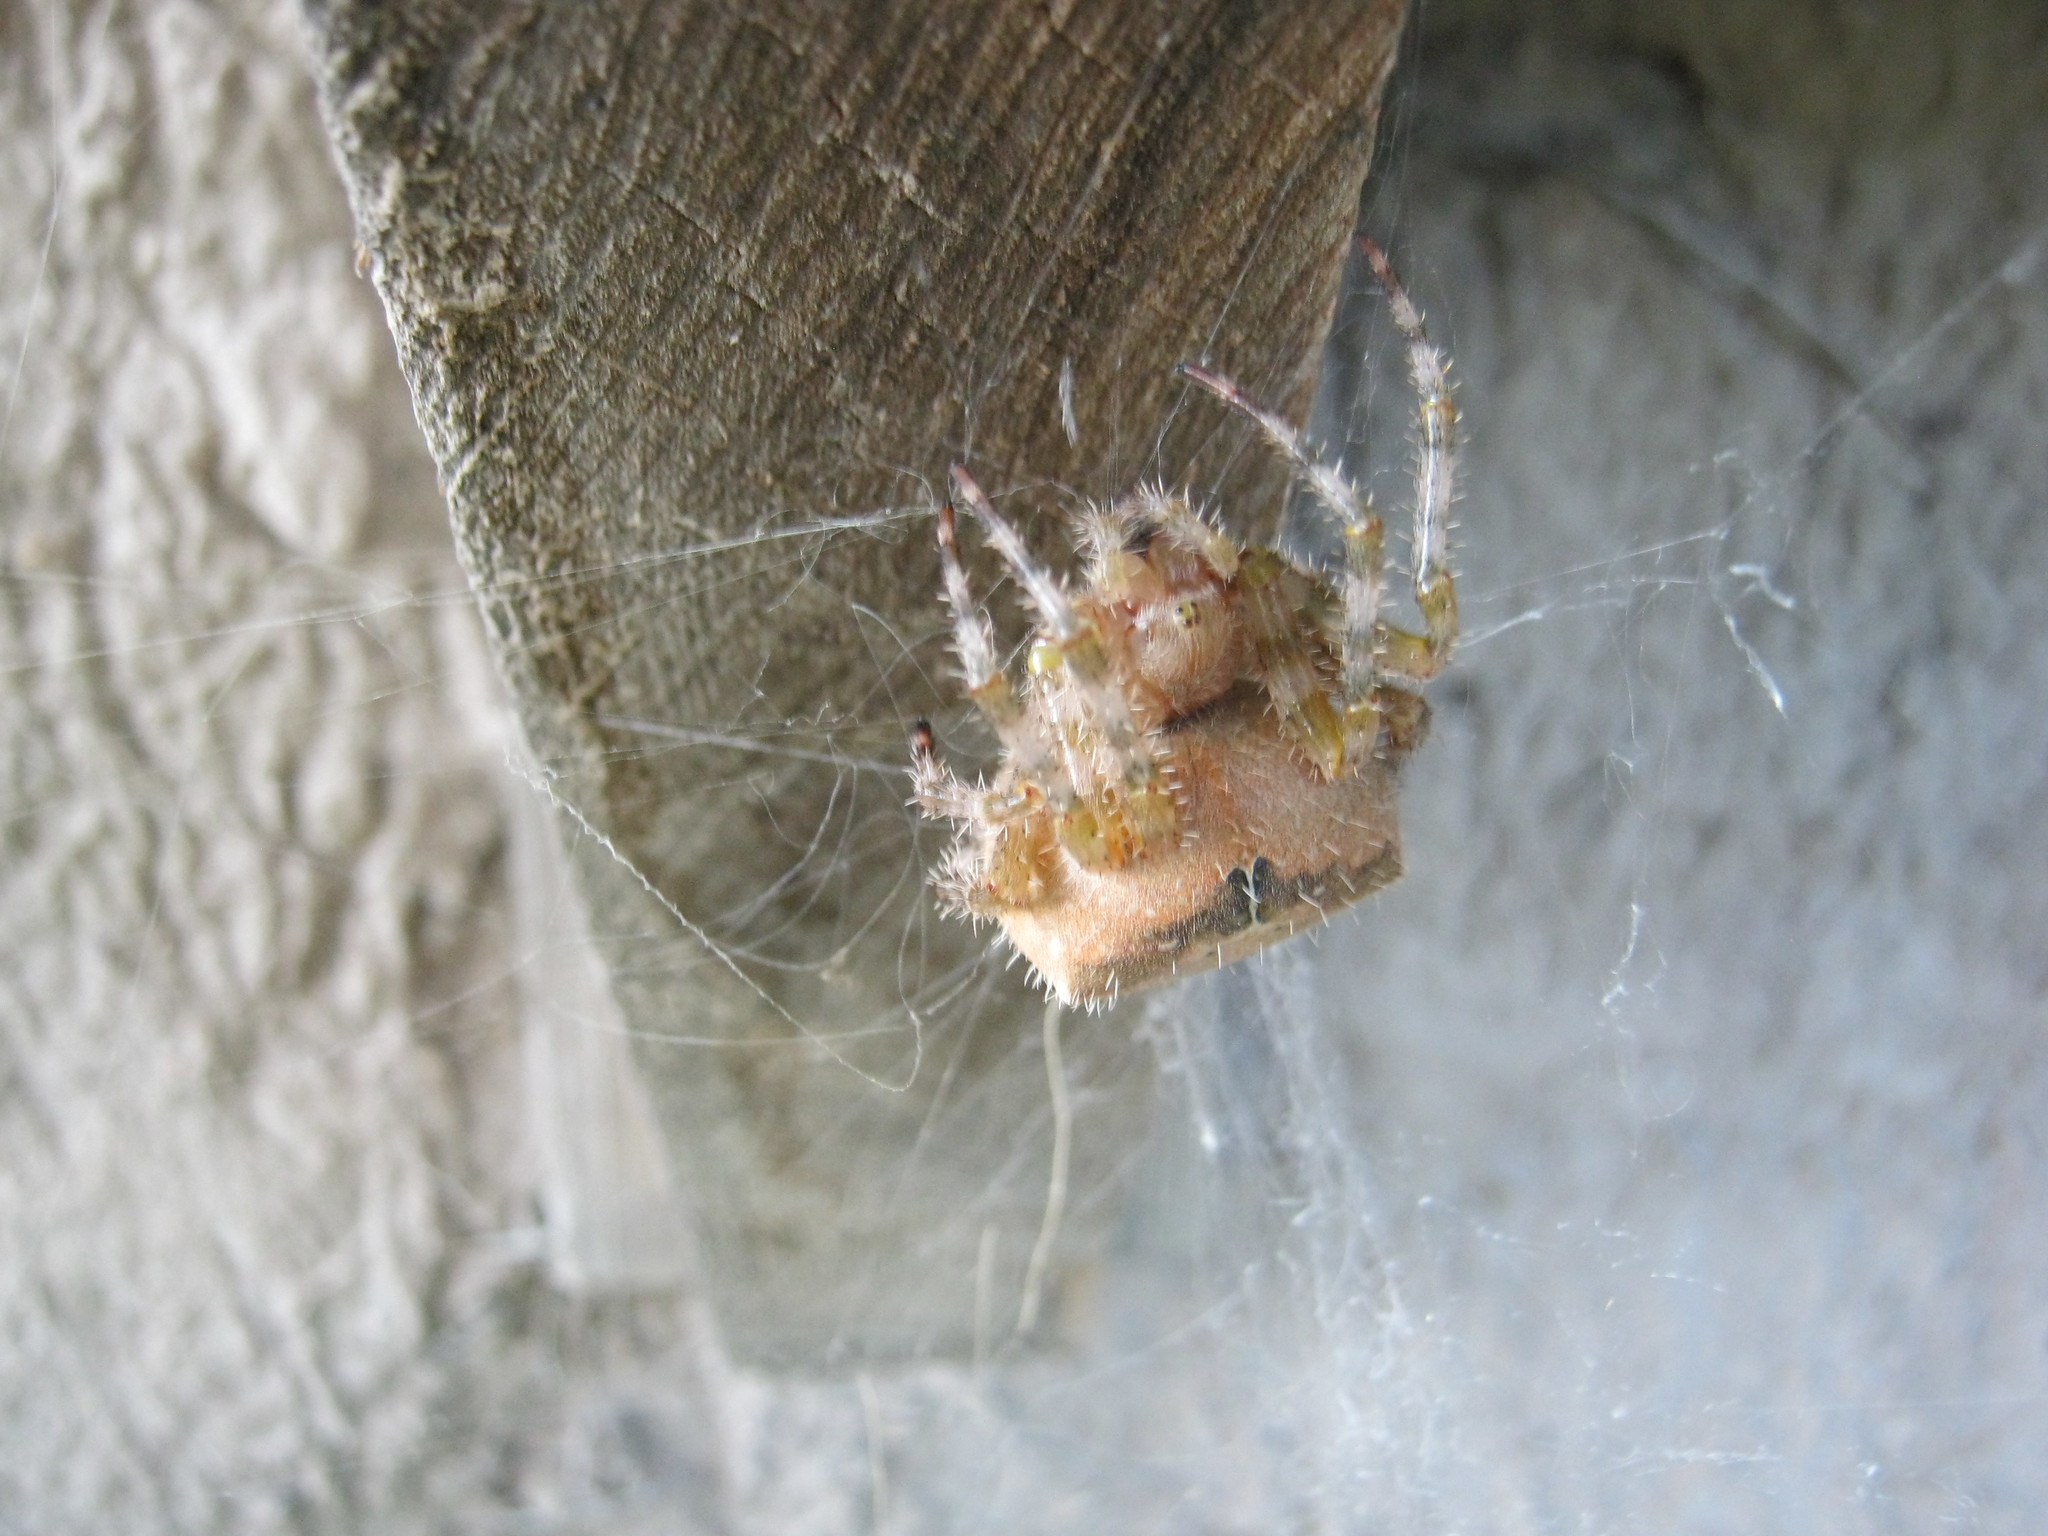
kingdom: Animalia
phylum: Arthropoda
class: Arachnida
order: Araneae
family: Araneidae
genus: Araneus
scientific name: Araneus pegnia
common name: Orb weavers
